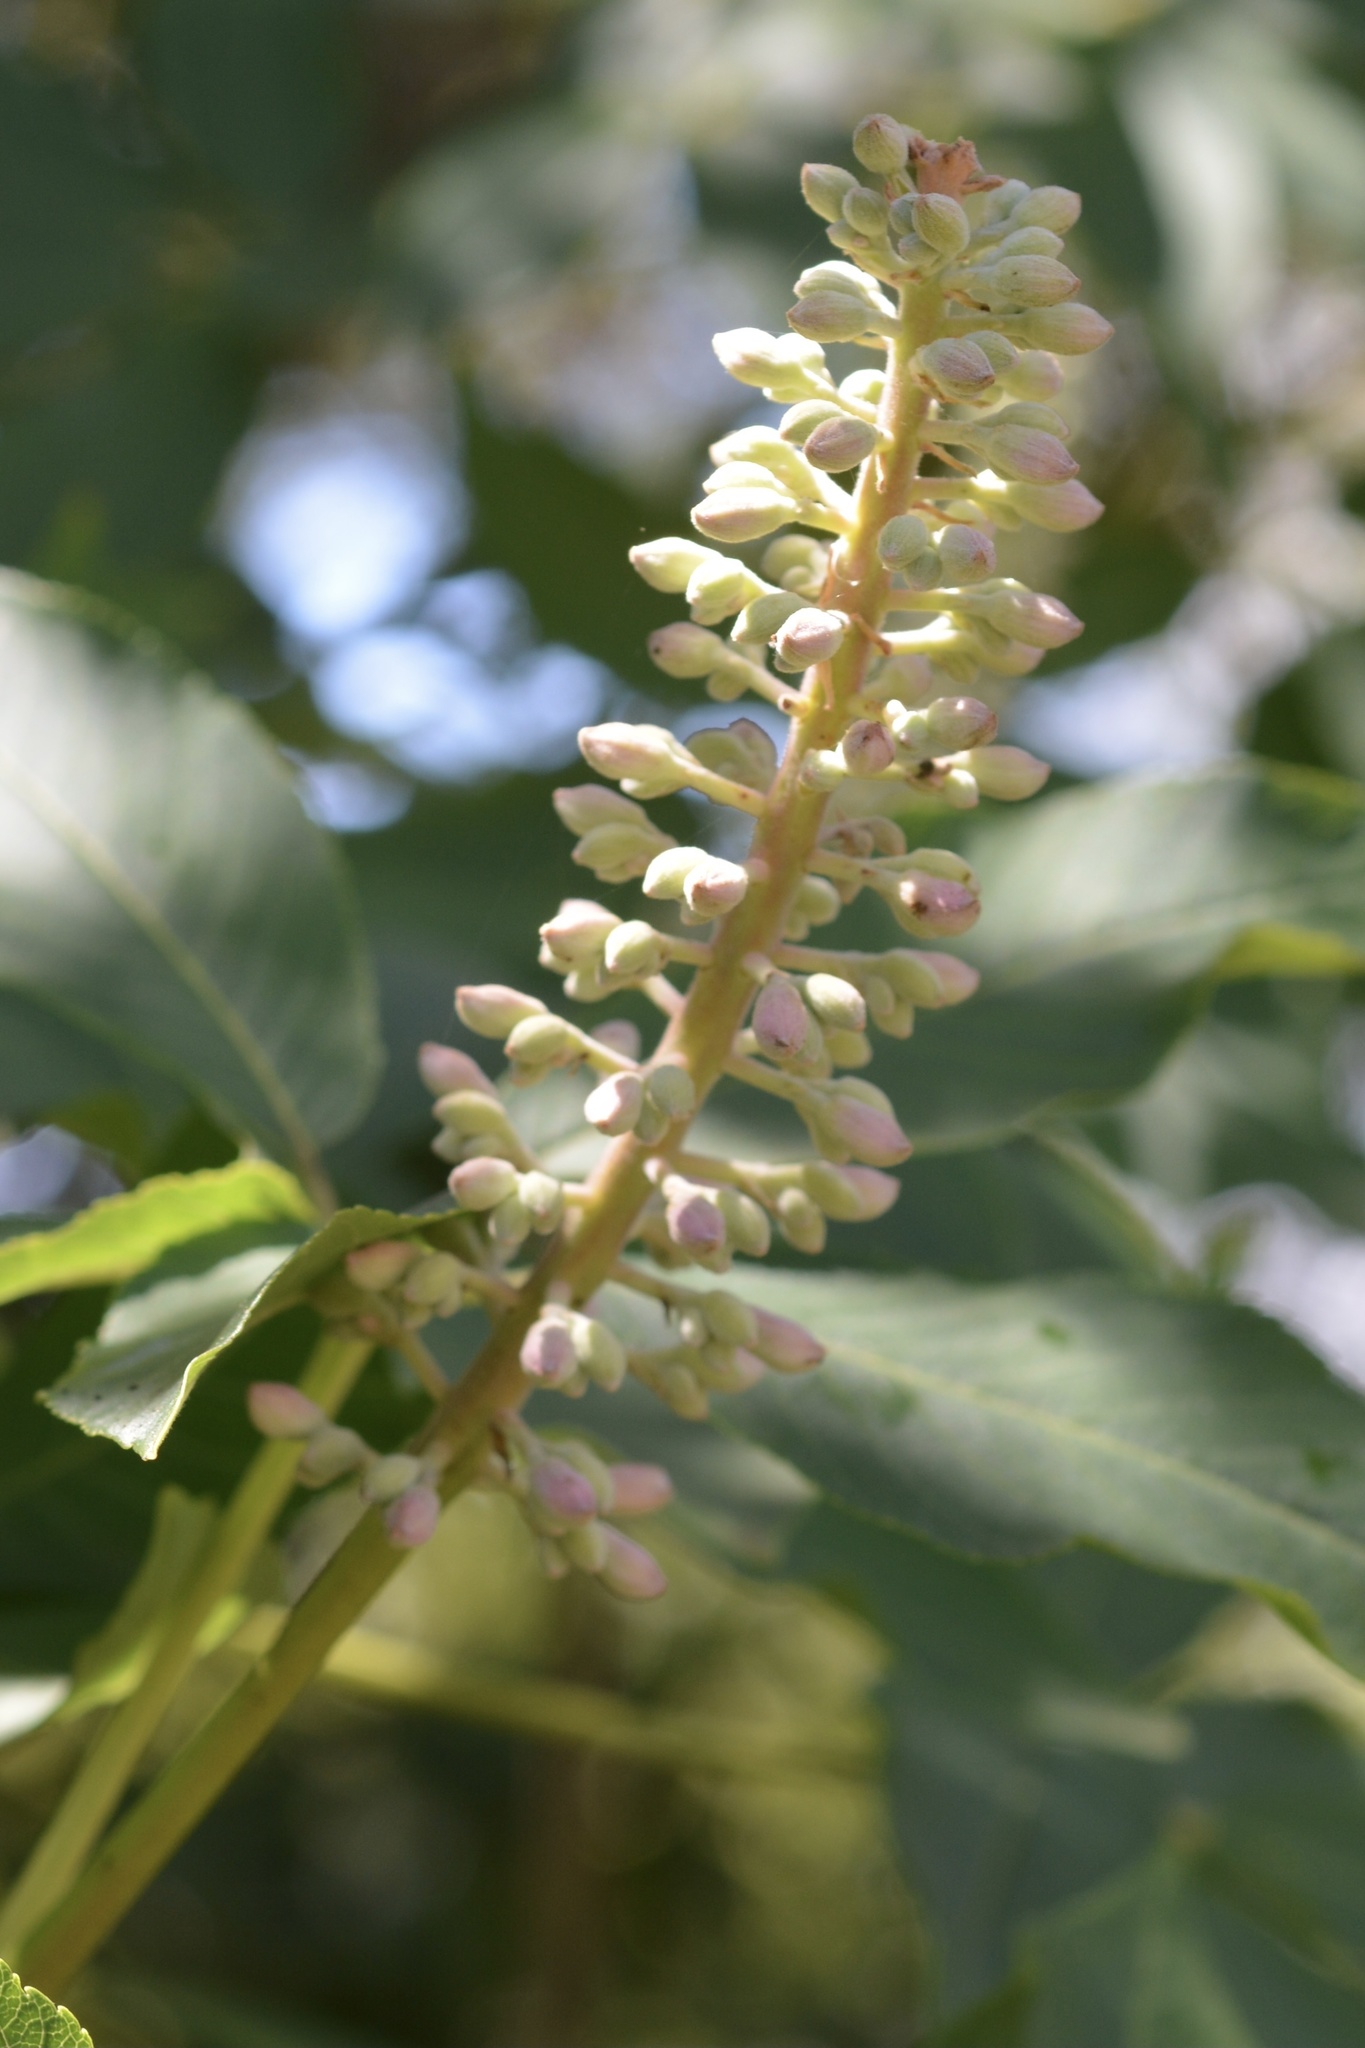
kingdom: Plantae
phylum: Tracheophyta
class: Magnoliopsida
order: Sapindales
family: Sapindaceae
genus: Aesculus
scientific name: Aesculus californica
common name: California buckeye
